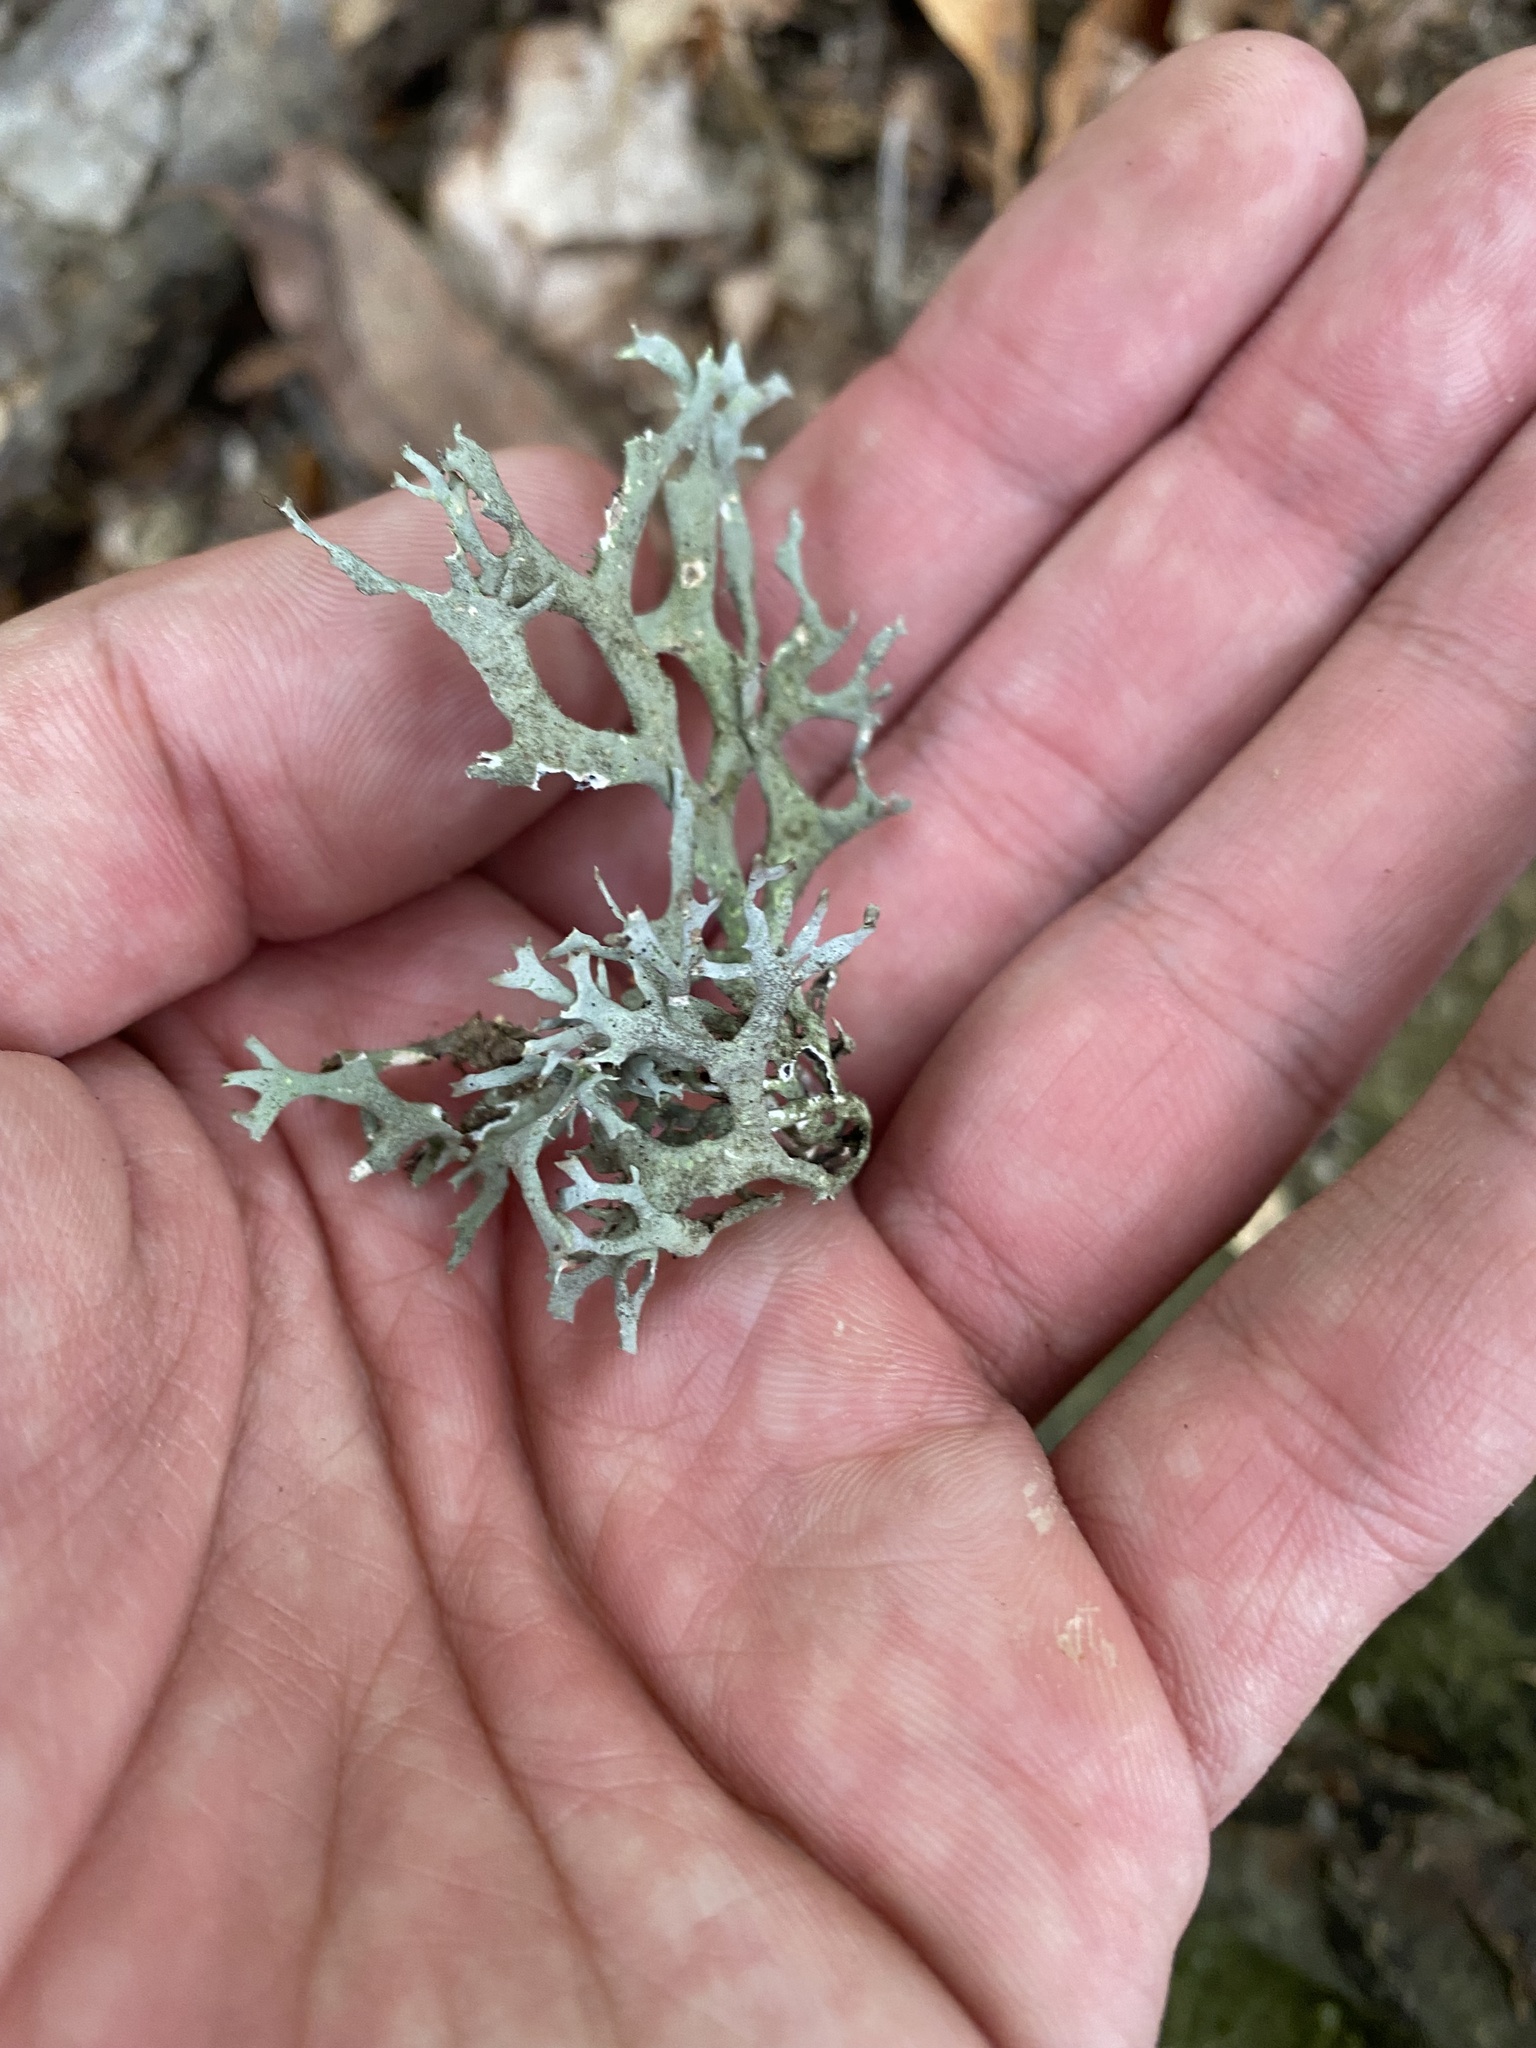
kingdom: Fungi
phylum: Ascomycota
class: Lecanoromycetes
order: Lecanorales
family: Parmeliaceae
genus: Pseudevernia
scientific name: Pseudevernia furfuracea
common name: Tree moss
